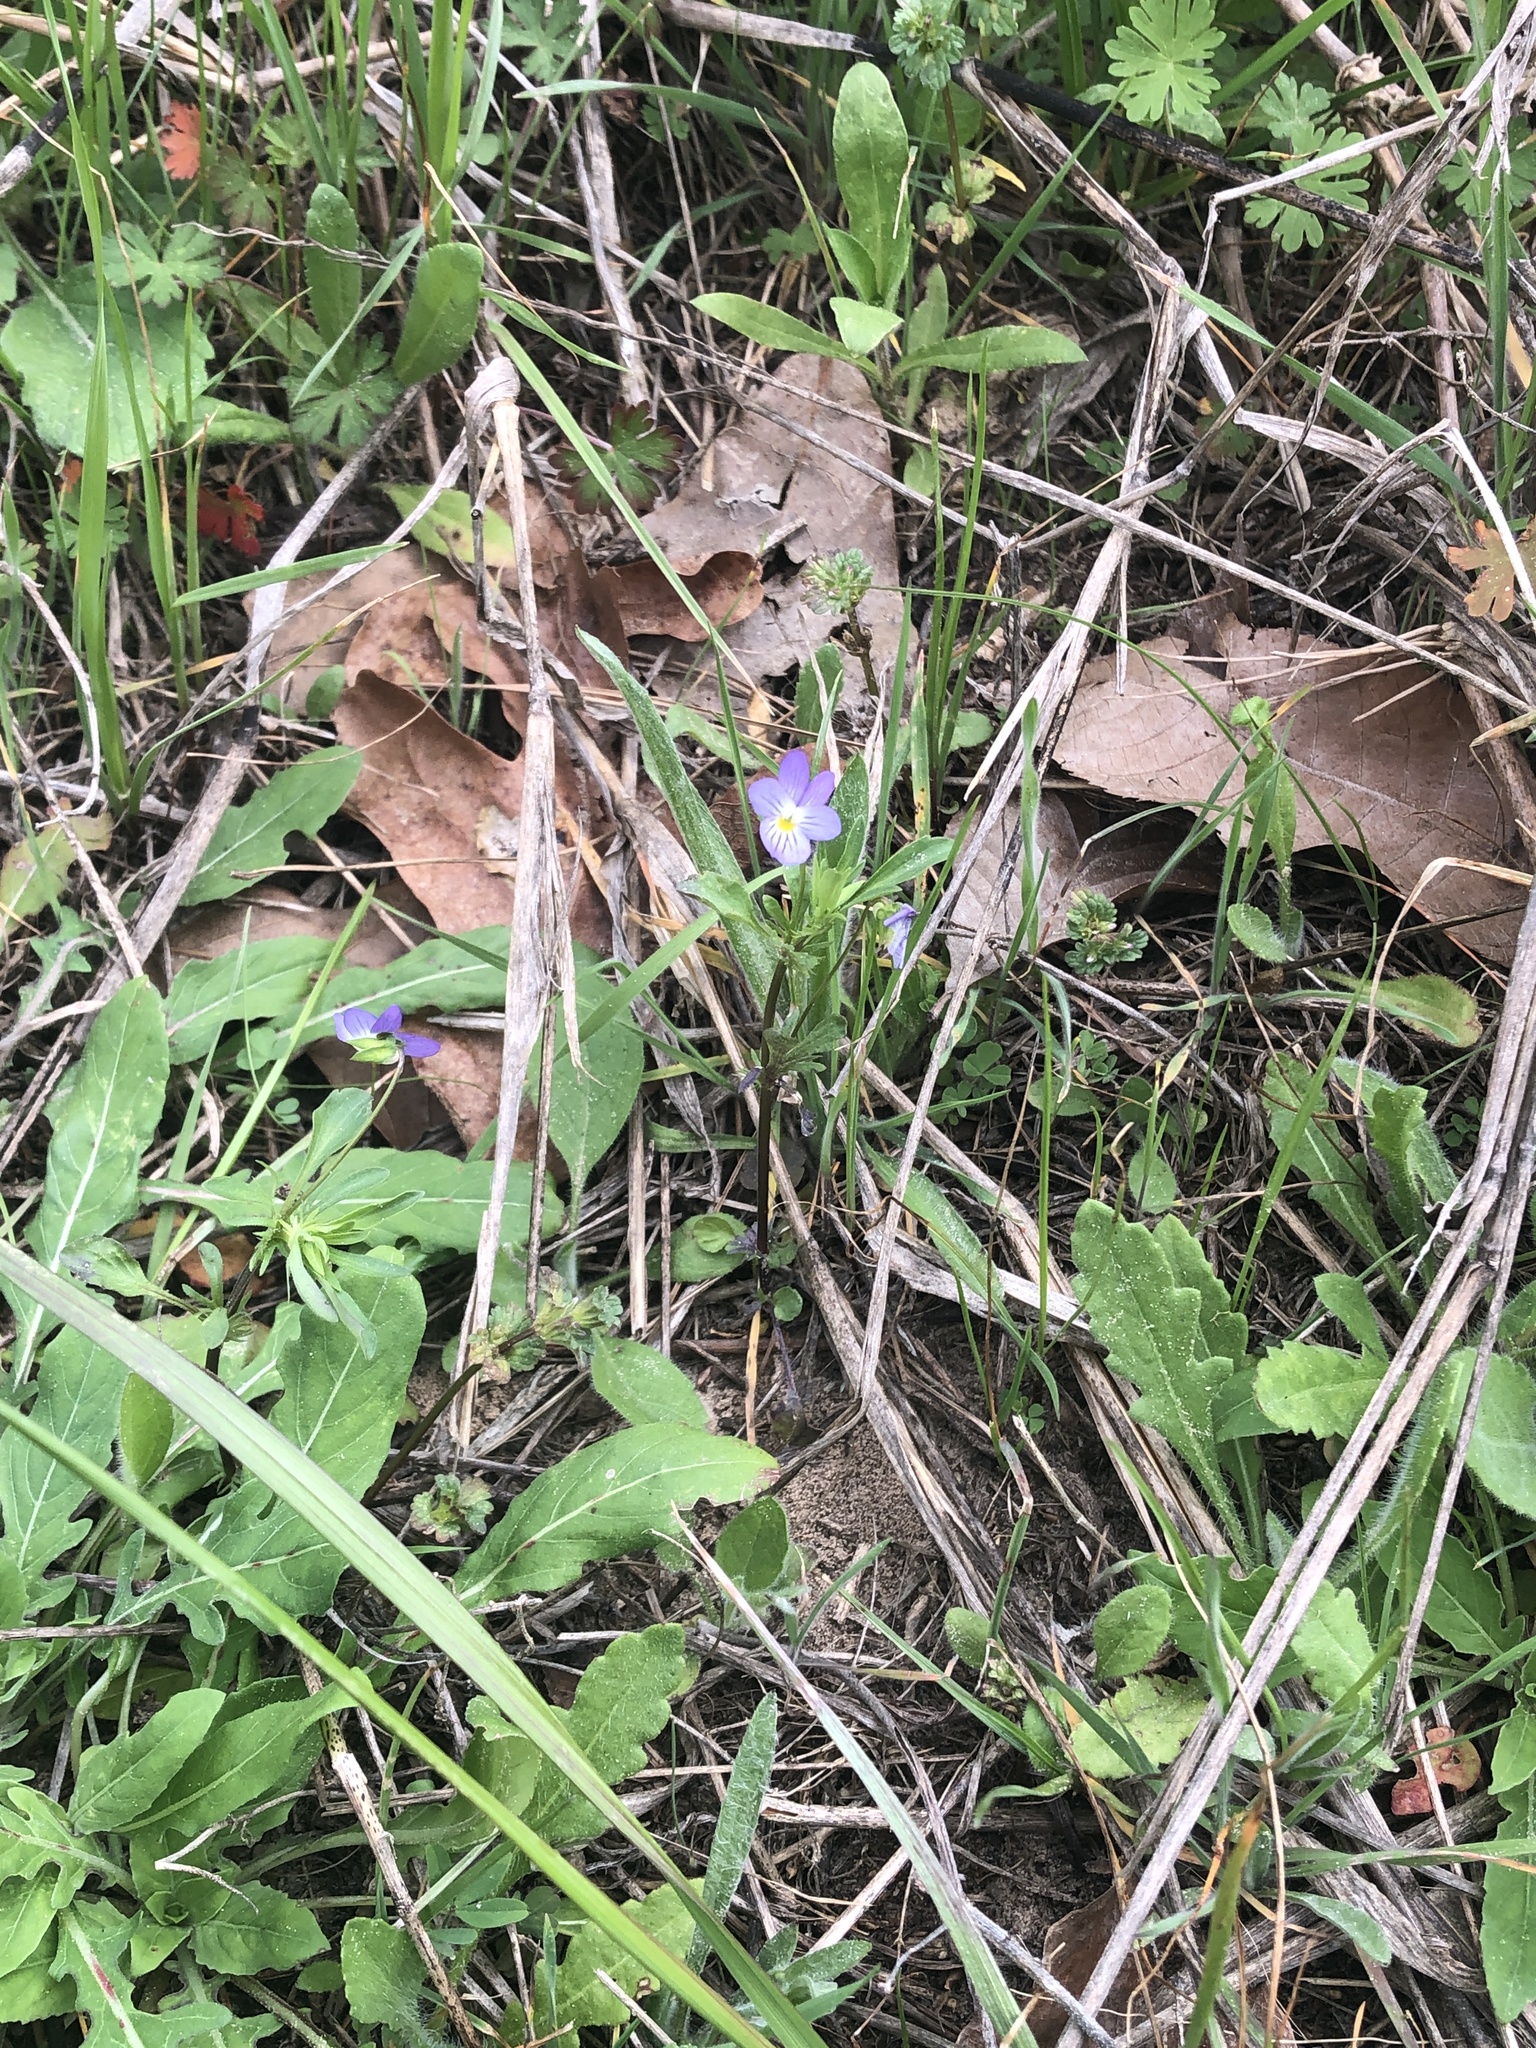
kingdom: Plantae
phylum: Tracheophyta
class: Magnoliopsida
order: Malpighiales
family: Violaceae
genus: Viola
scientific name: Viola rafinesquei
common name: American field pansy
